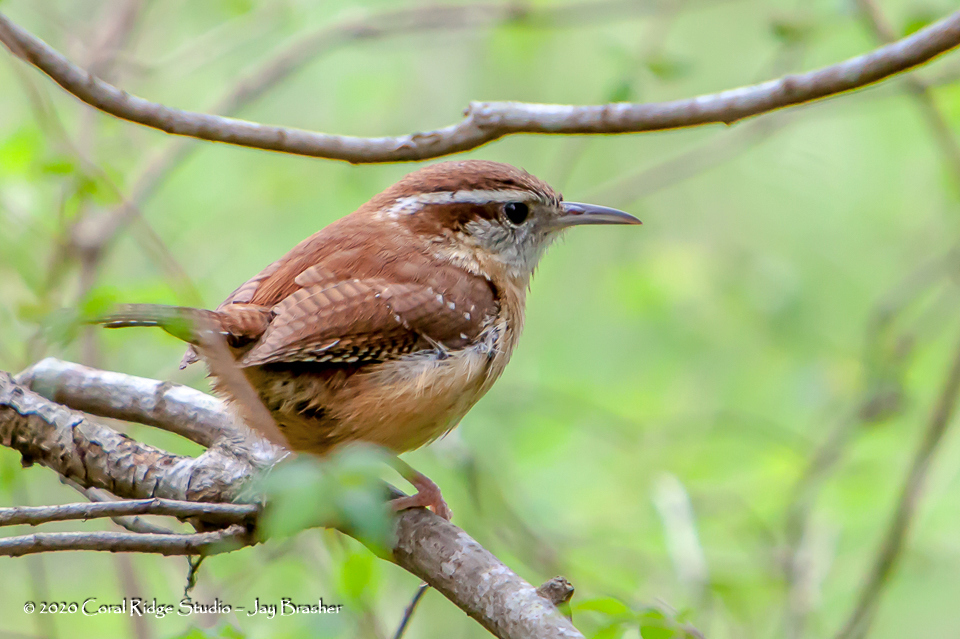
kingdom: Animalia
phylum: Chordata
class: Aves
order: Passeriformes
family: Troglodytidae
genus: Thryothorus
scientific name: Thryothorus ludovicianus
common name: Carolina wren
